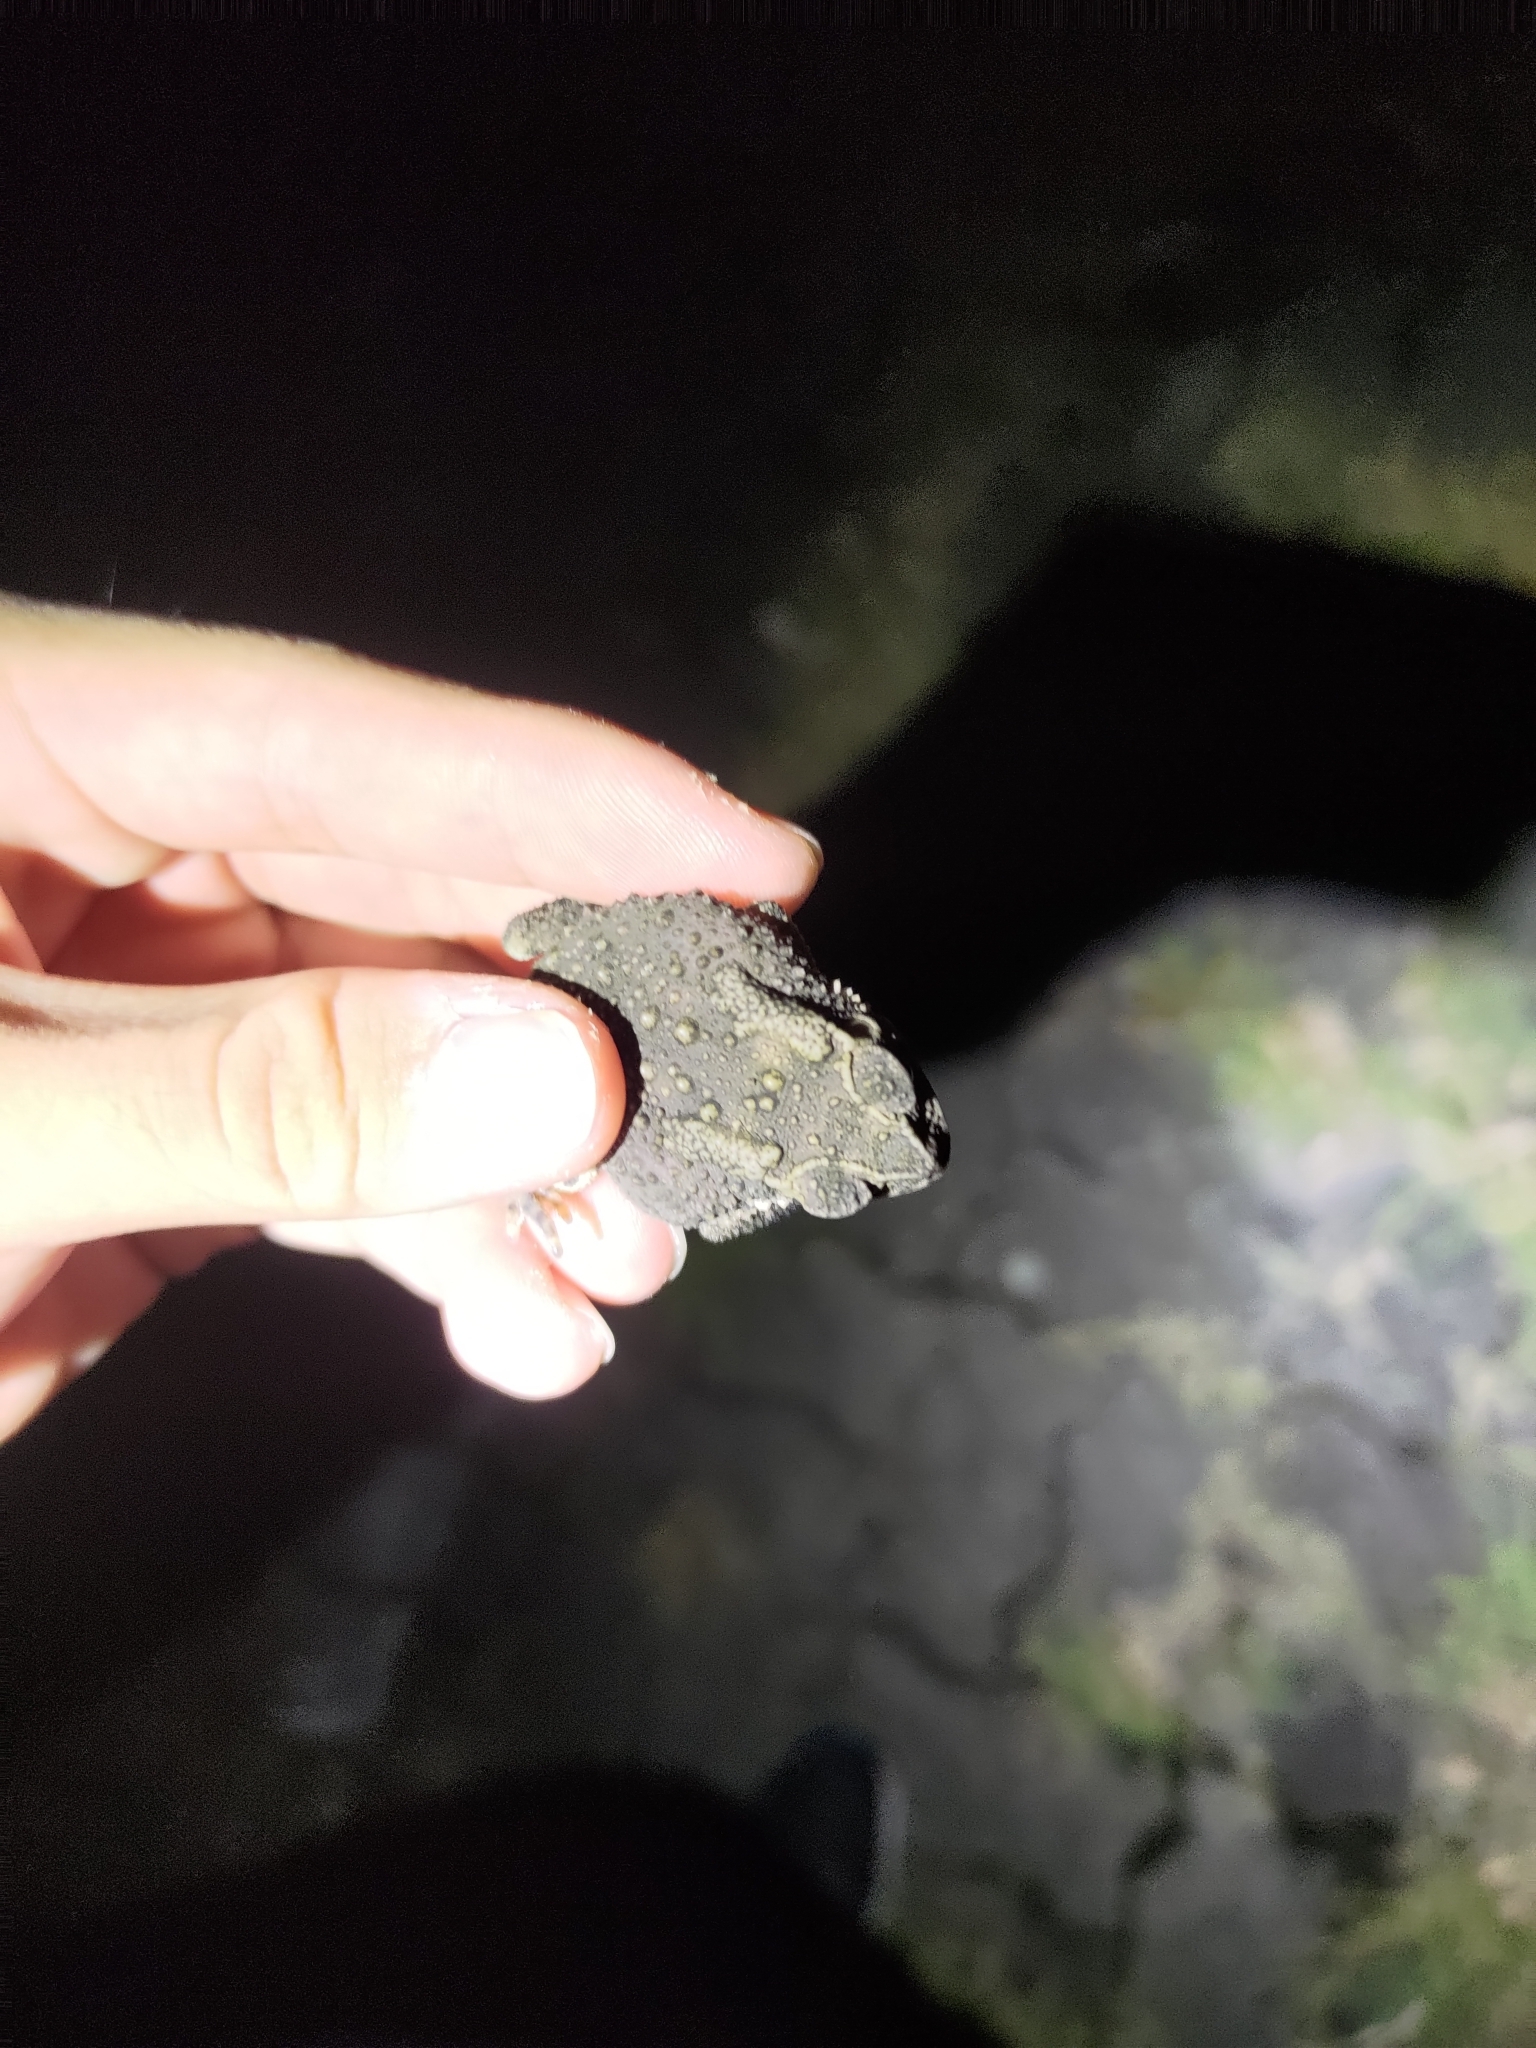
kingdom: Animalia
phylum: Chordata
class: Amphibia
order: Anura
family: Bufonidae
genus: Duttaphrynus
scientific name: Duttaphrynus melanostictus
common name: Common sunda toad
